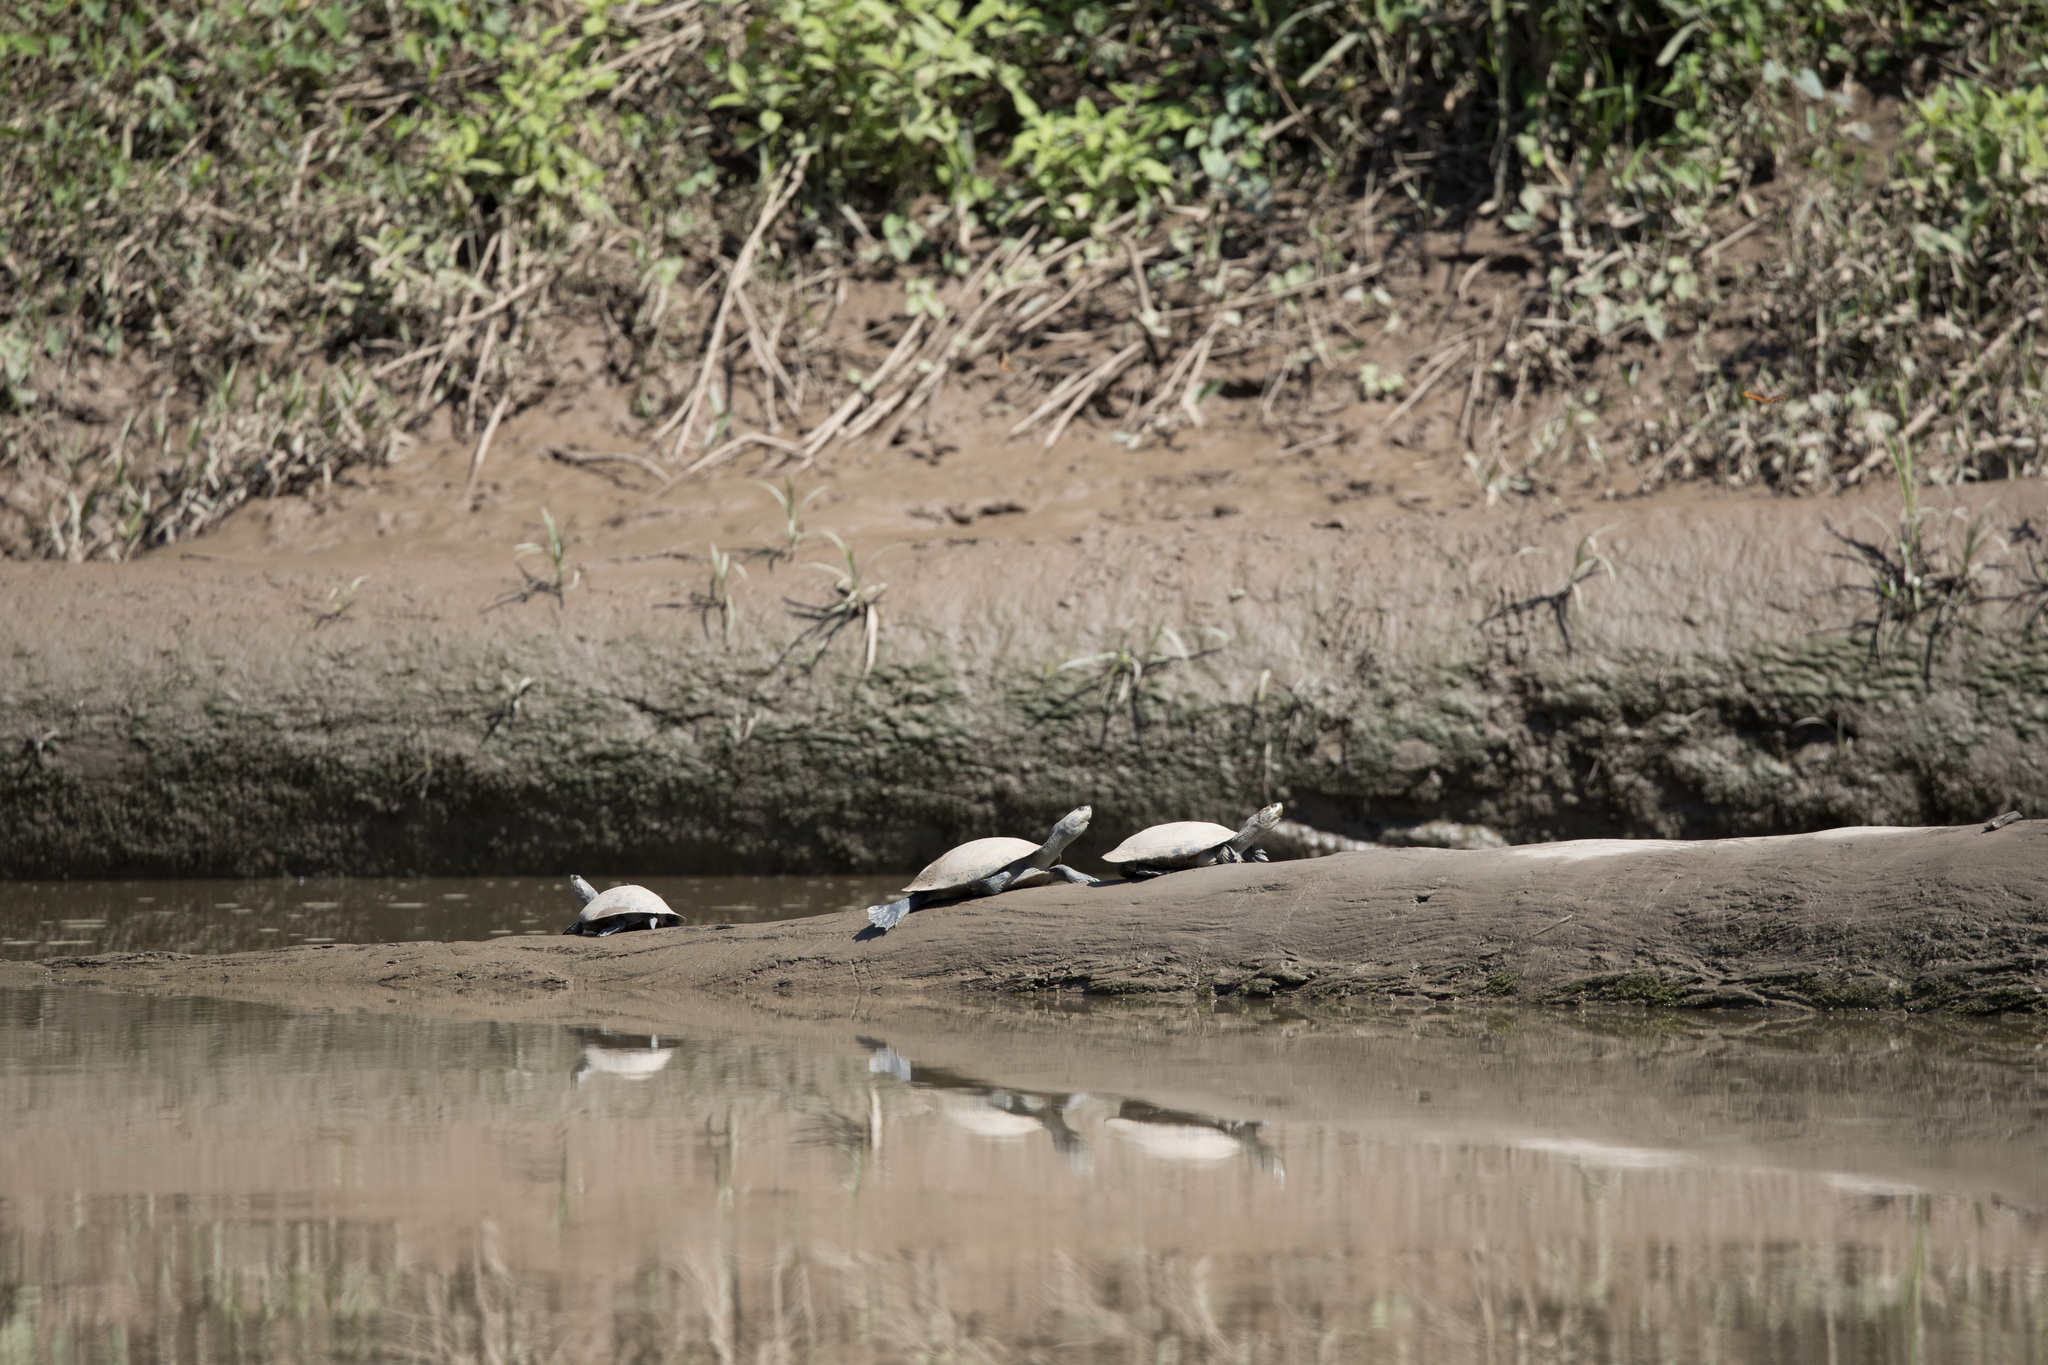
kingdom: Animalia
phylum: Chordata
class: Testudines
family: Podocnemididae
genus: Podocnemis
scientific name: Podocnemis unifilis
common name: Yellow-spotted amazon river turtle
